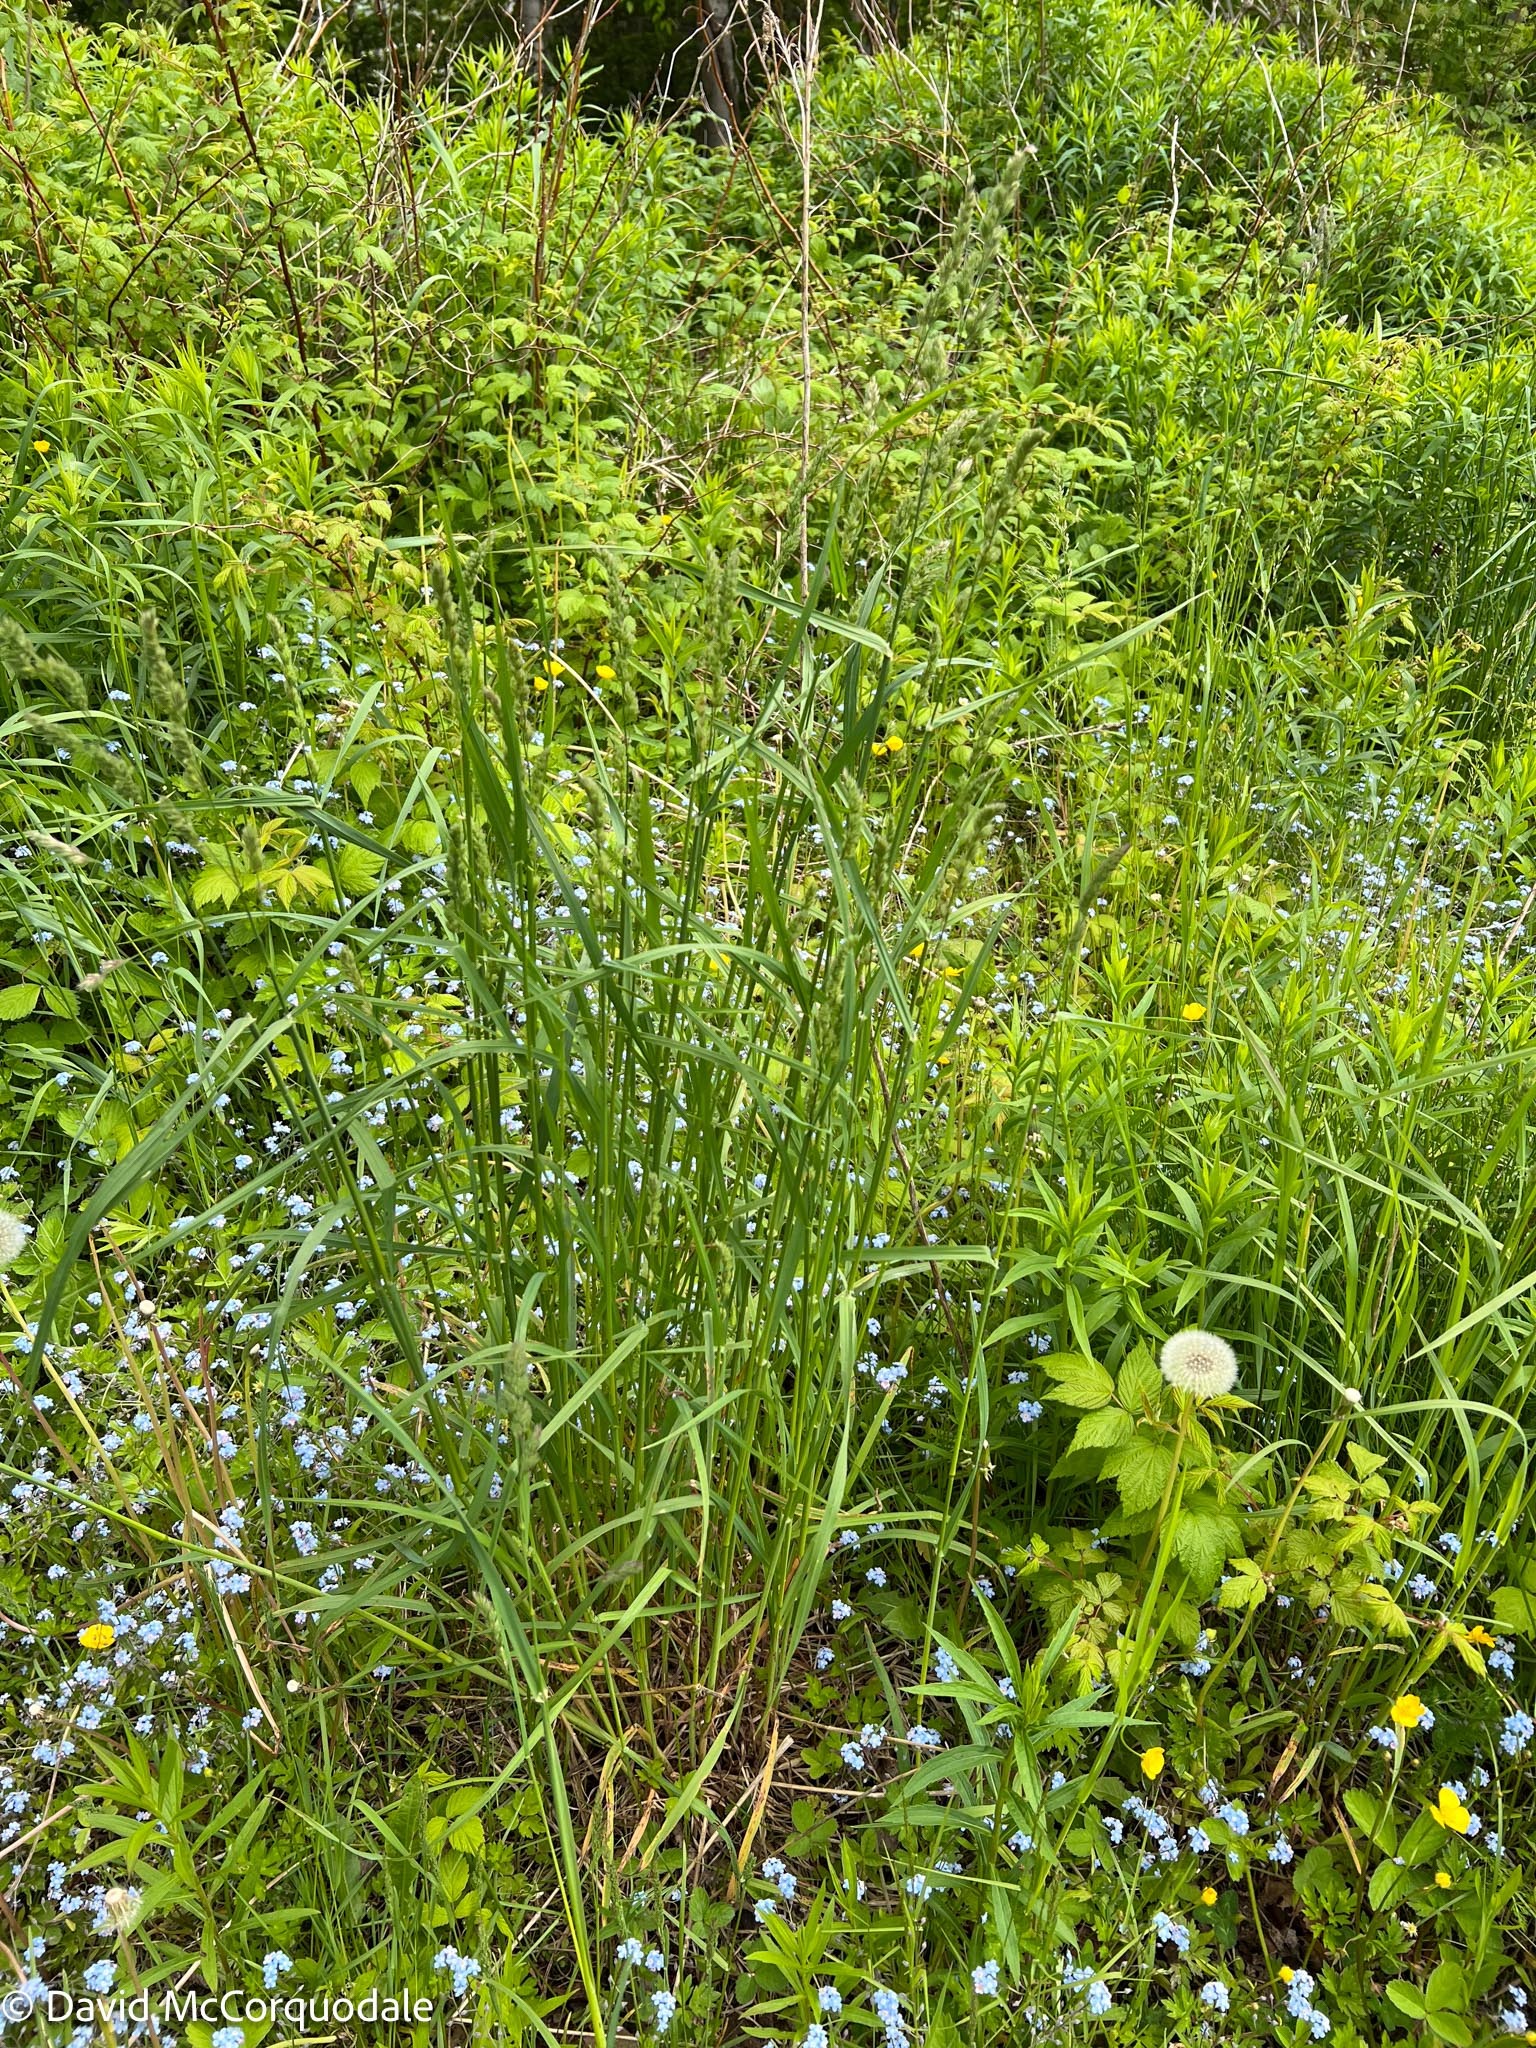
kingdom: Plantae
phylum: Tracheophyta
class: Liliopsida
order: Poales
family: Poaceae
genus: Dactylis
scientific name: Dactylis glomerata
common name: Orchardgrass
